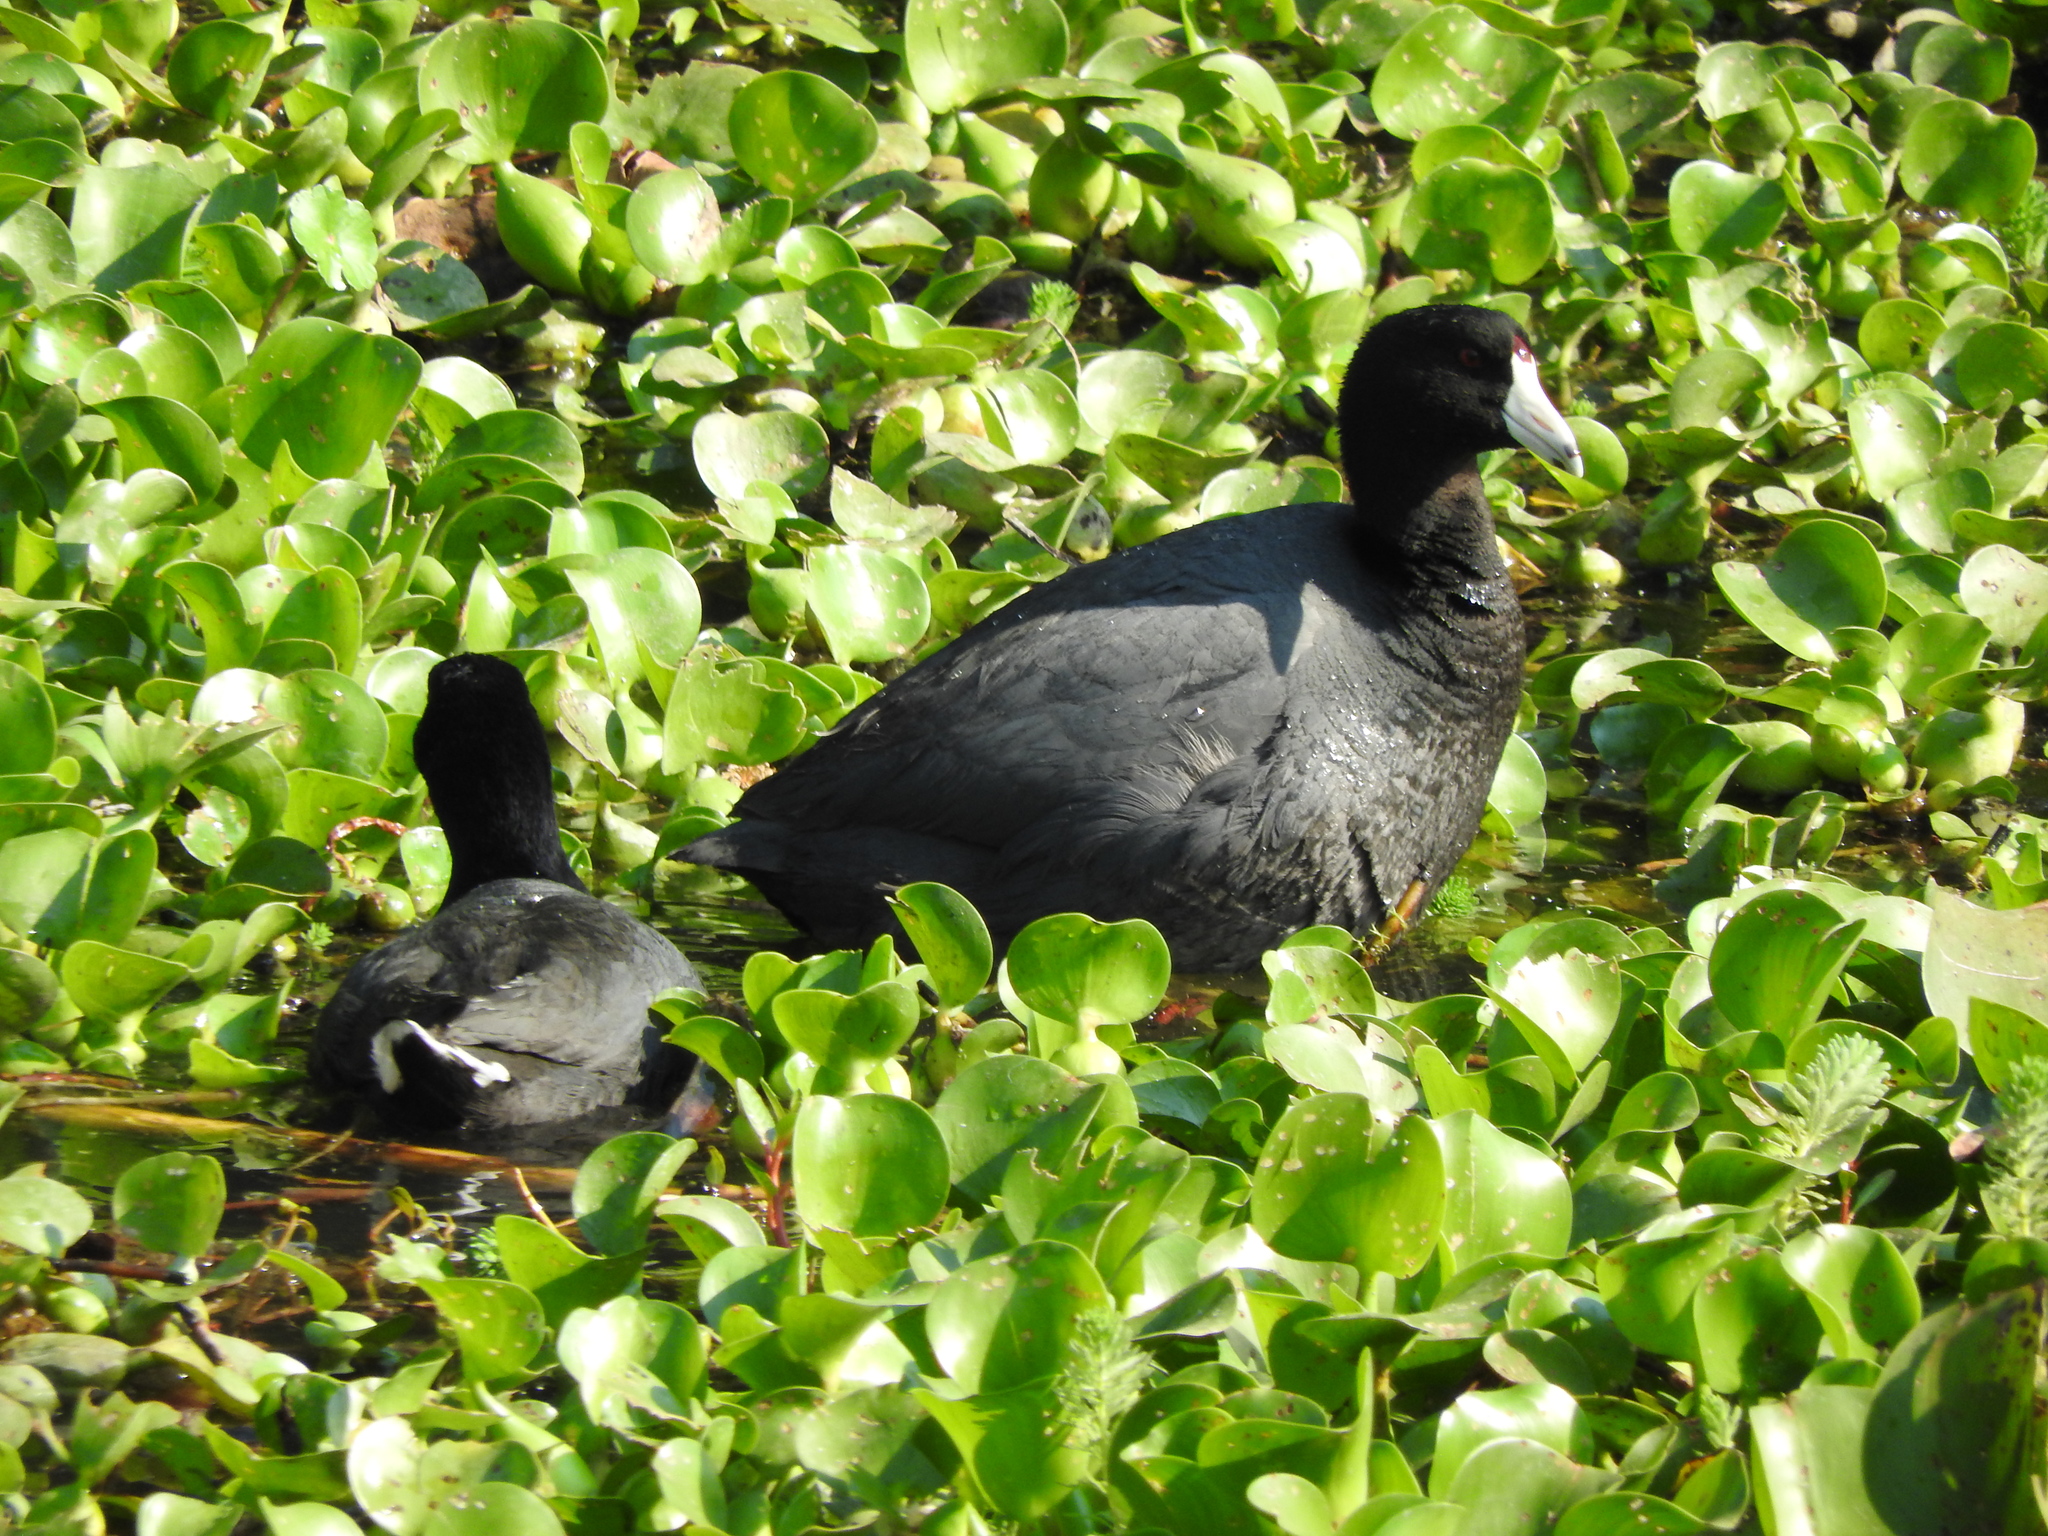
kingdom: Animalia
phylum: Chordata
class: Aves
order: Gruiformes
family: Rallidae
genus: Fulica
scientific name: Fulica americana
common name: American coot
